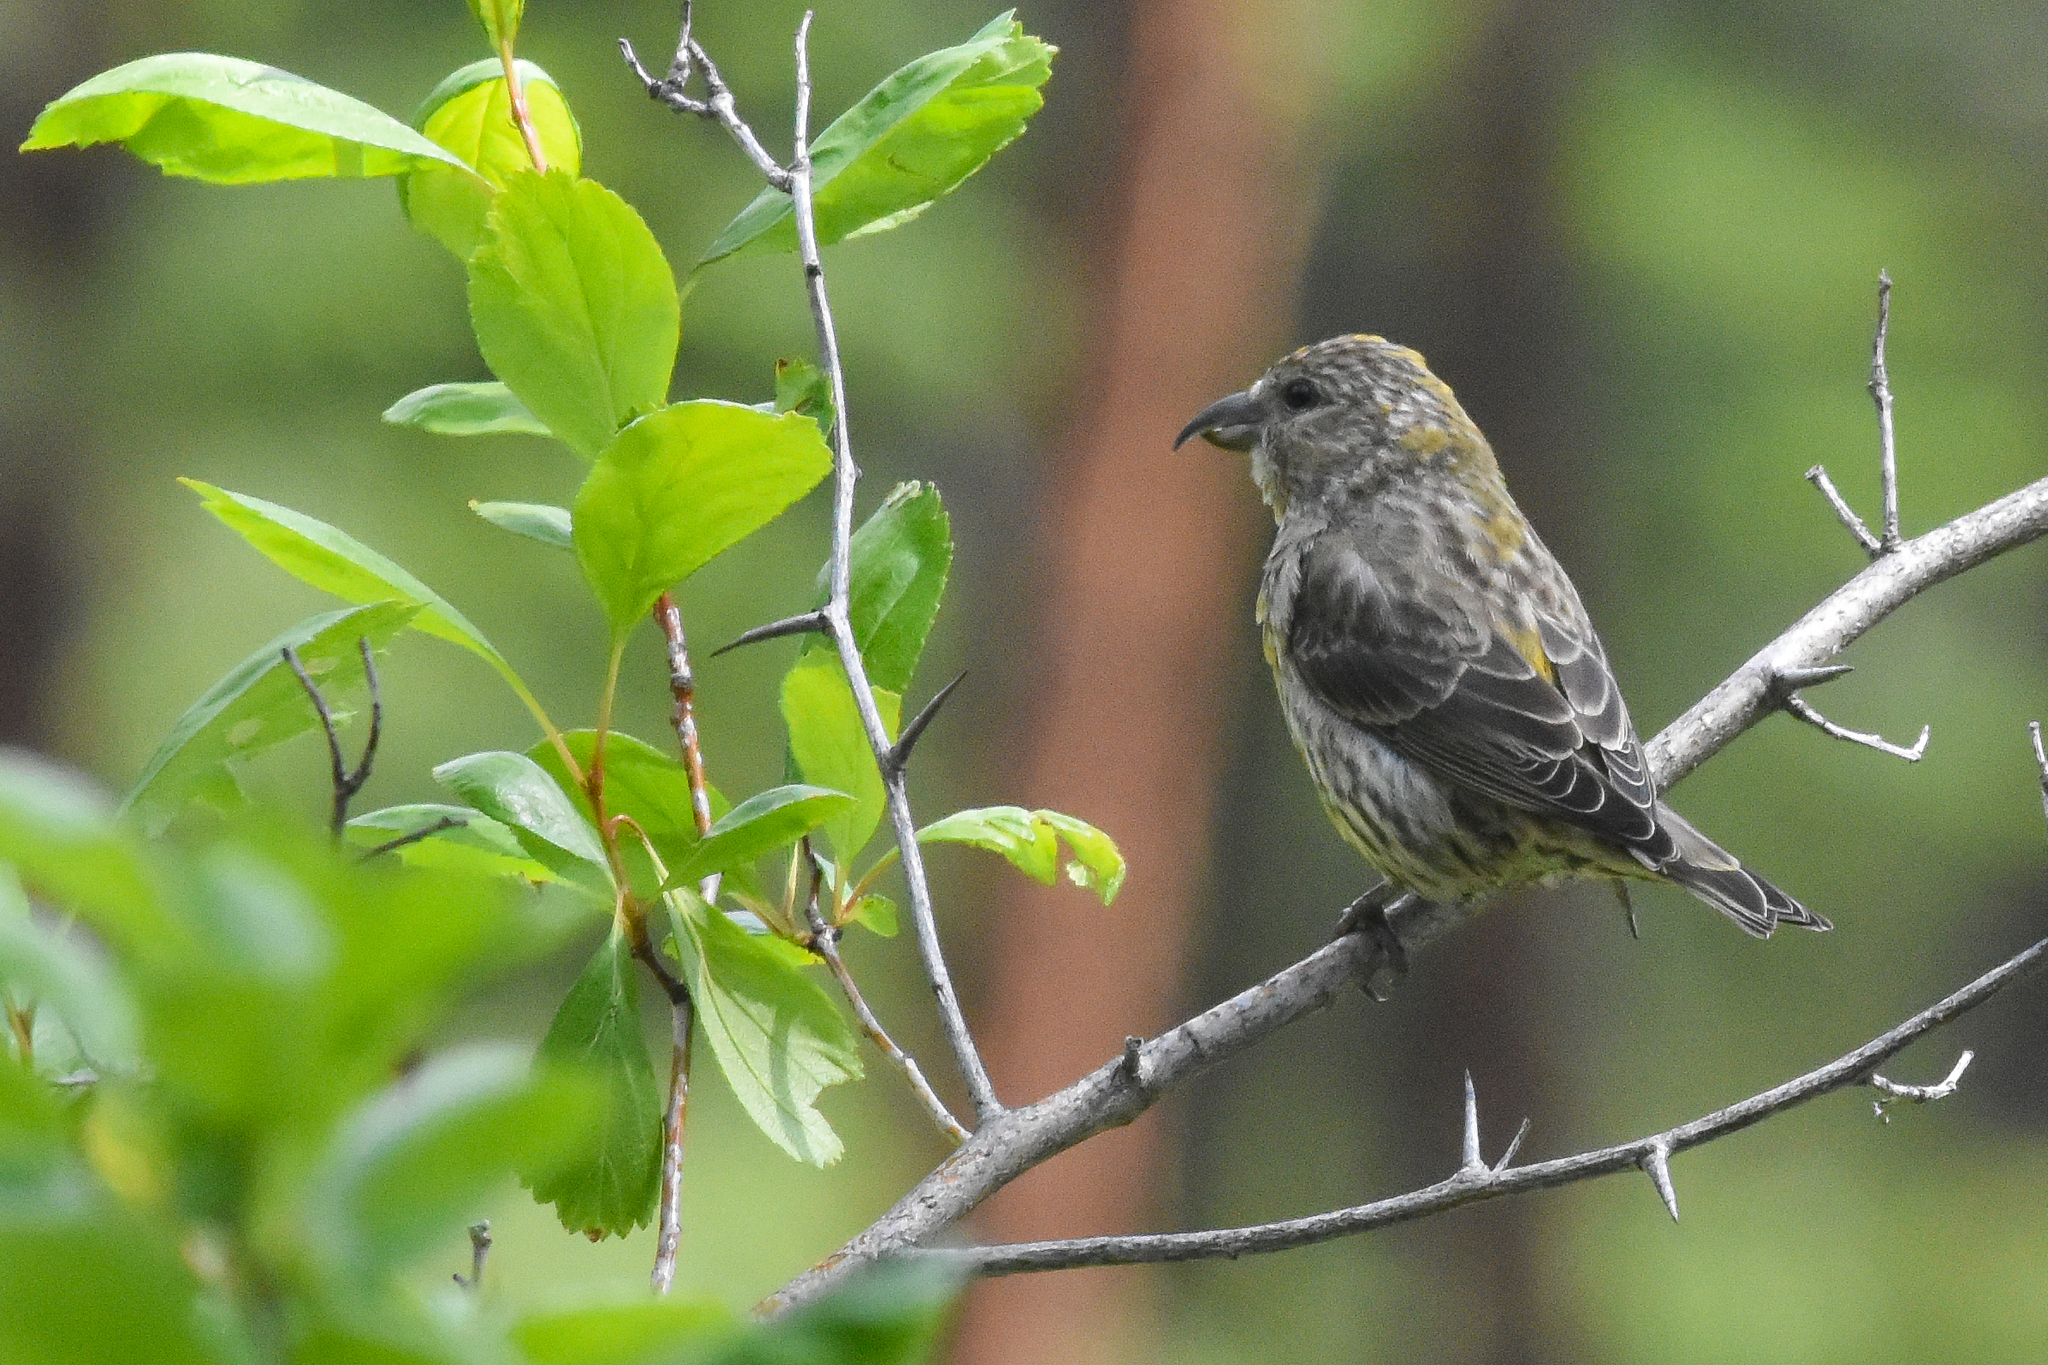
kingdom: Animalia
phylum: Chordata
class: Aves
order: Passeriformes
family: Fringillidae
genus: Loxia
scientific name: Loxia curvirostra
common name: Red crossbill
